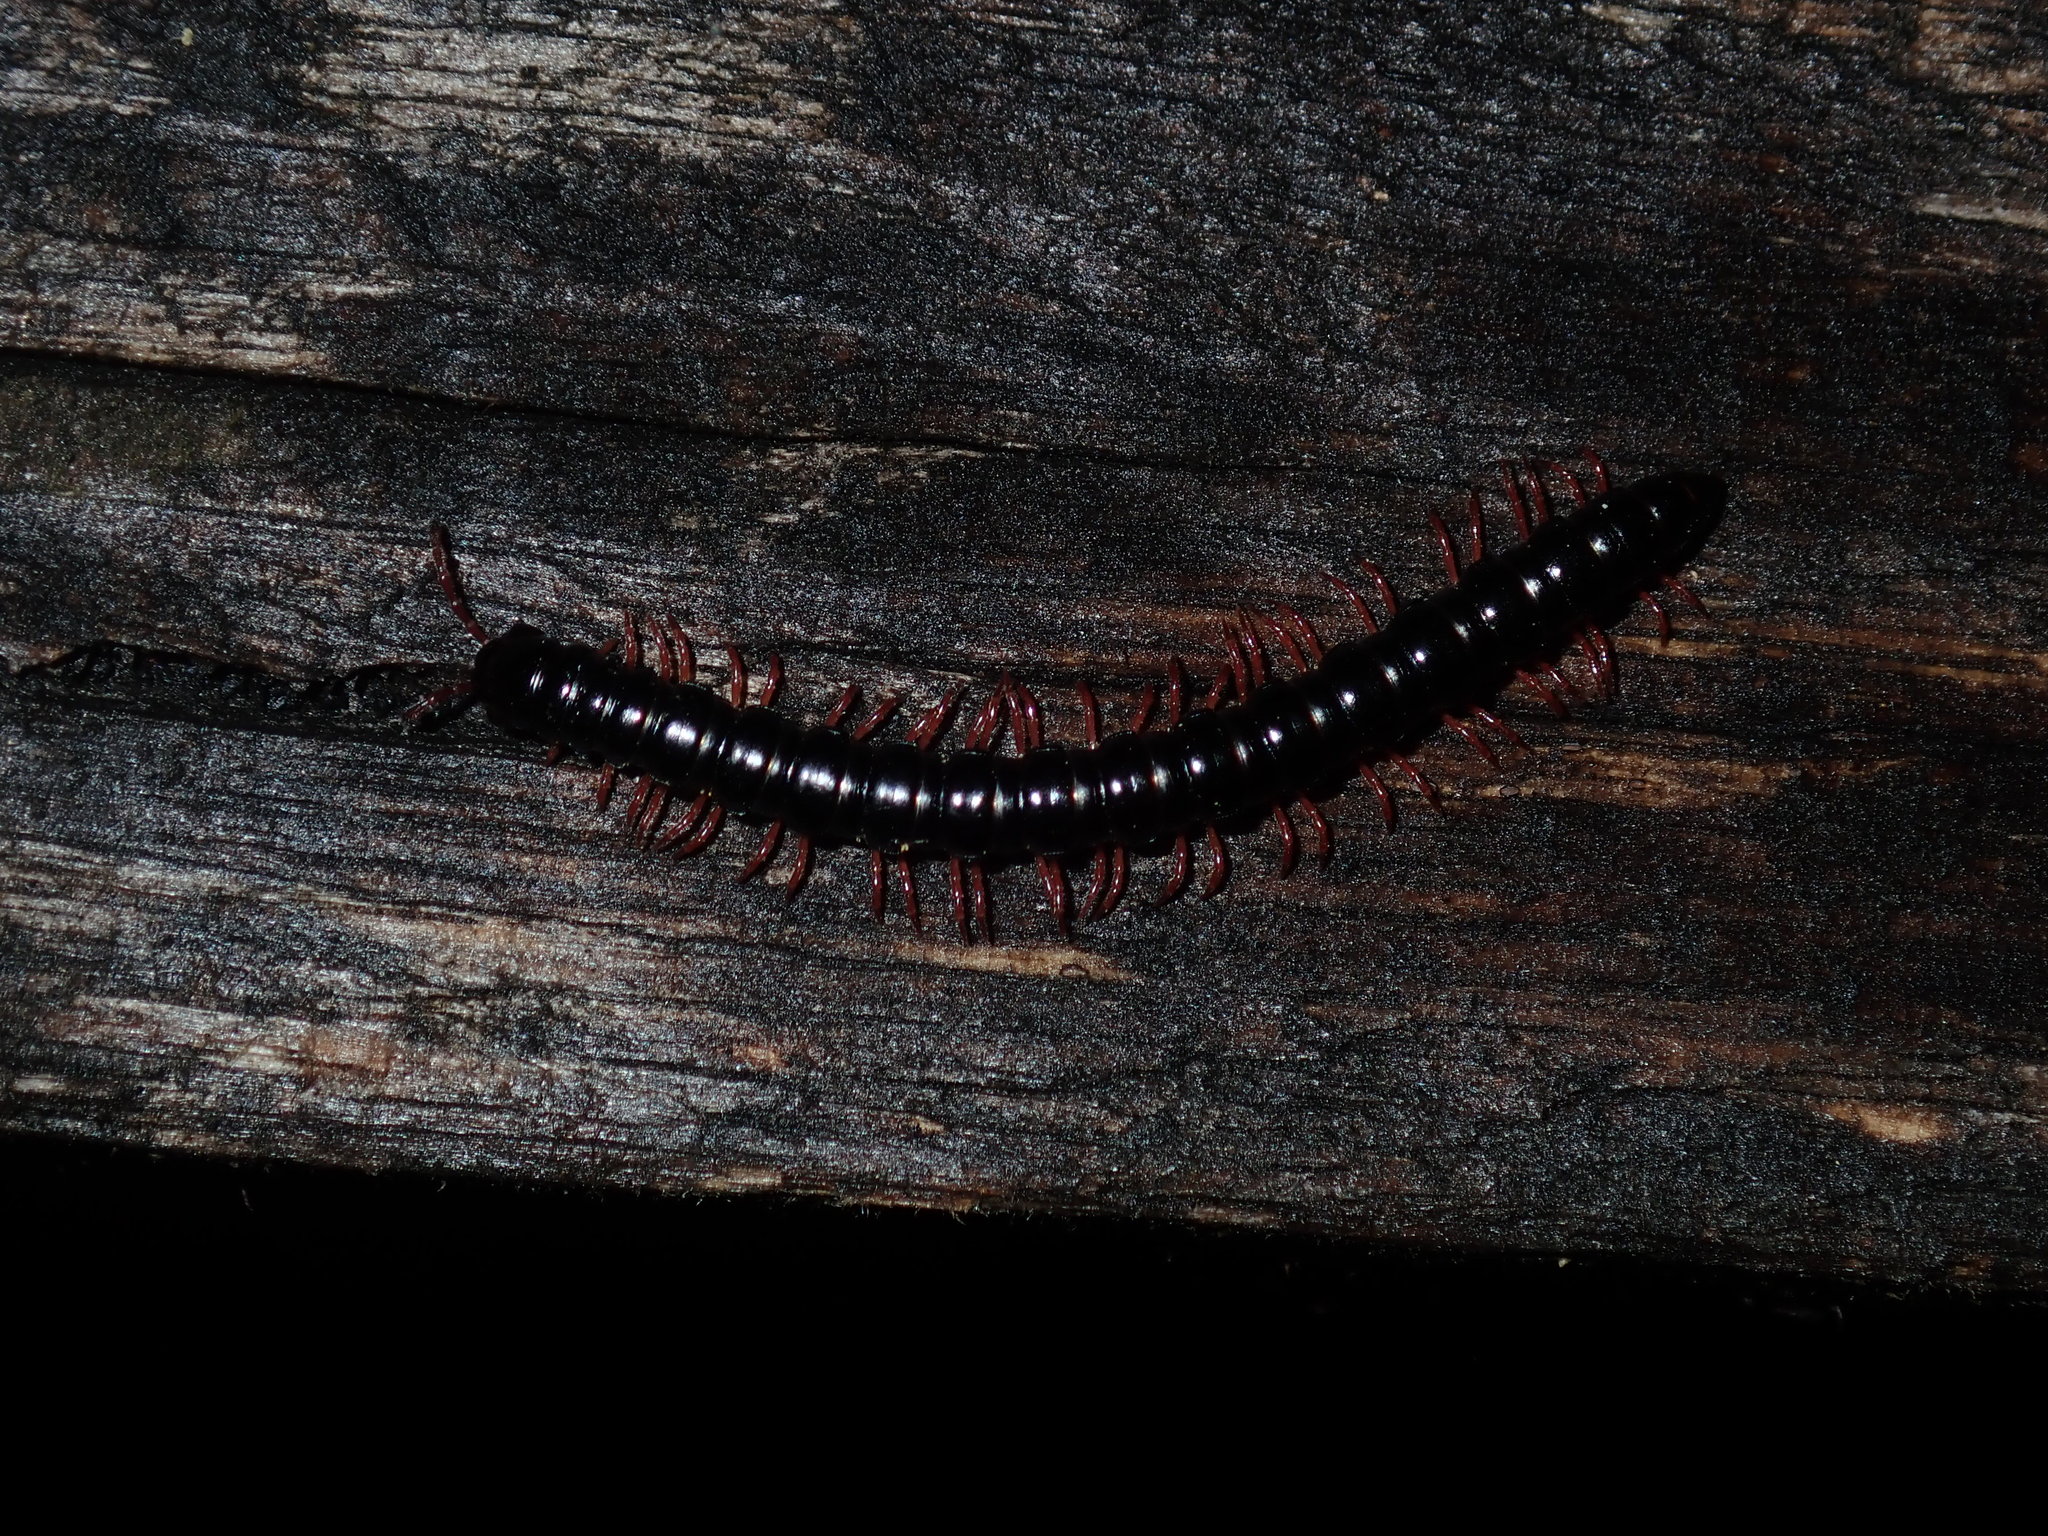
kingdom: Animalia
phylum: Arthropoda
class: Diplopoda
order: Polydesmida
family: Paradoxosomatidae
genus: Heterocladosoma
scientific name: Heterocladosoma
